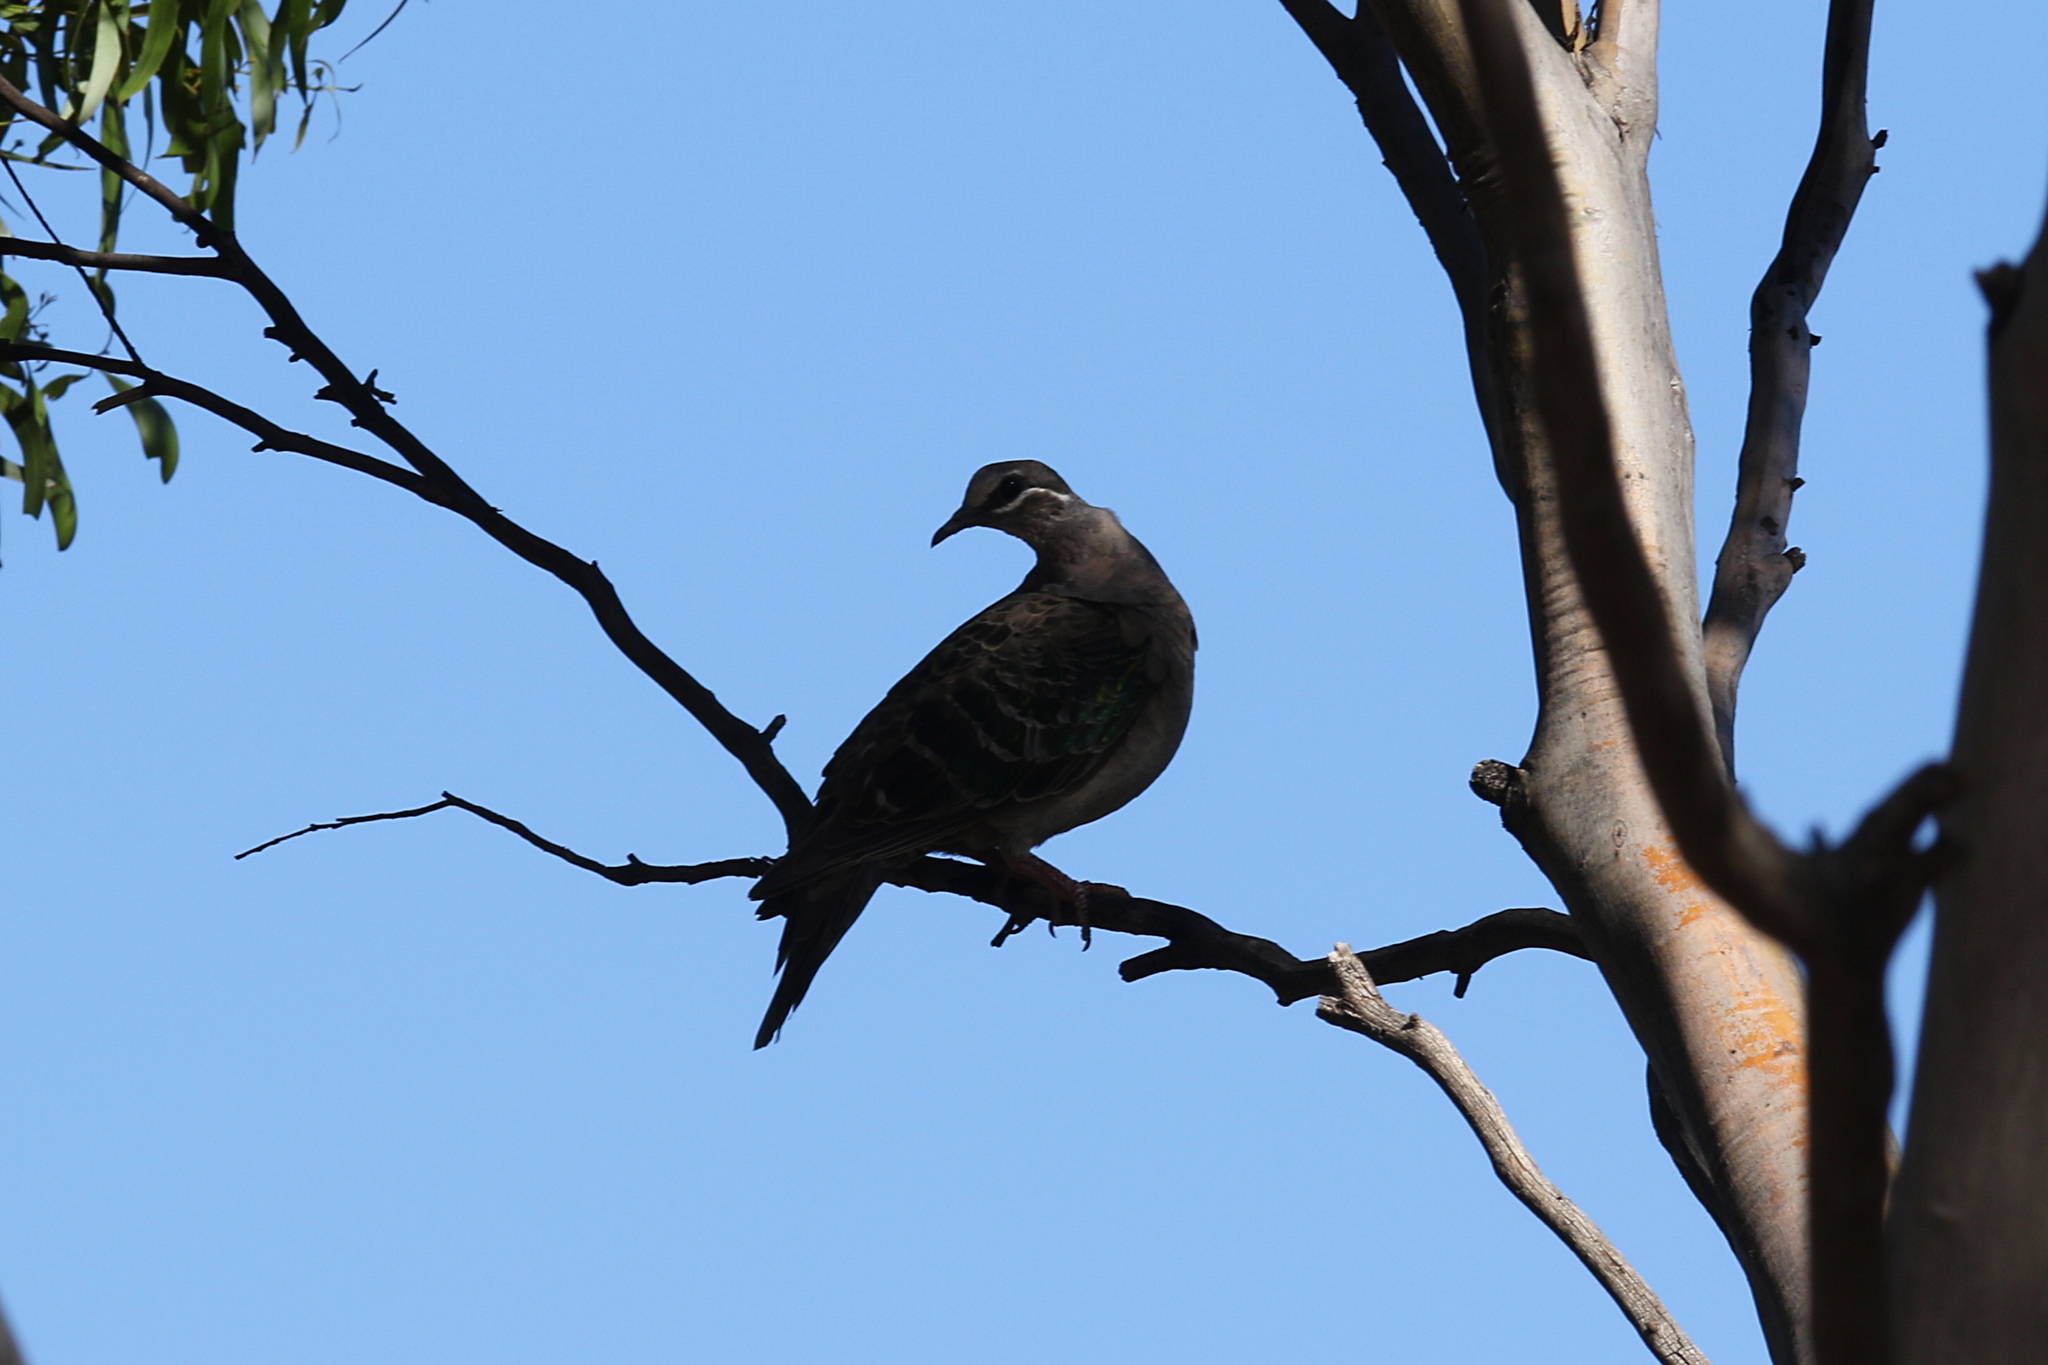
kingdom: Animalia
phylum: Chordata
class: Aves
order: Columbiformes
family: Columbidae
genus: Phaps
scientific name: Phaps chalcoptera
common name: Common bronzewing
